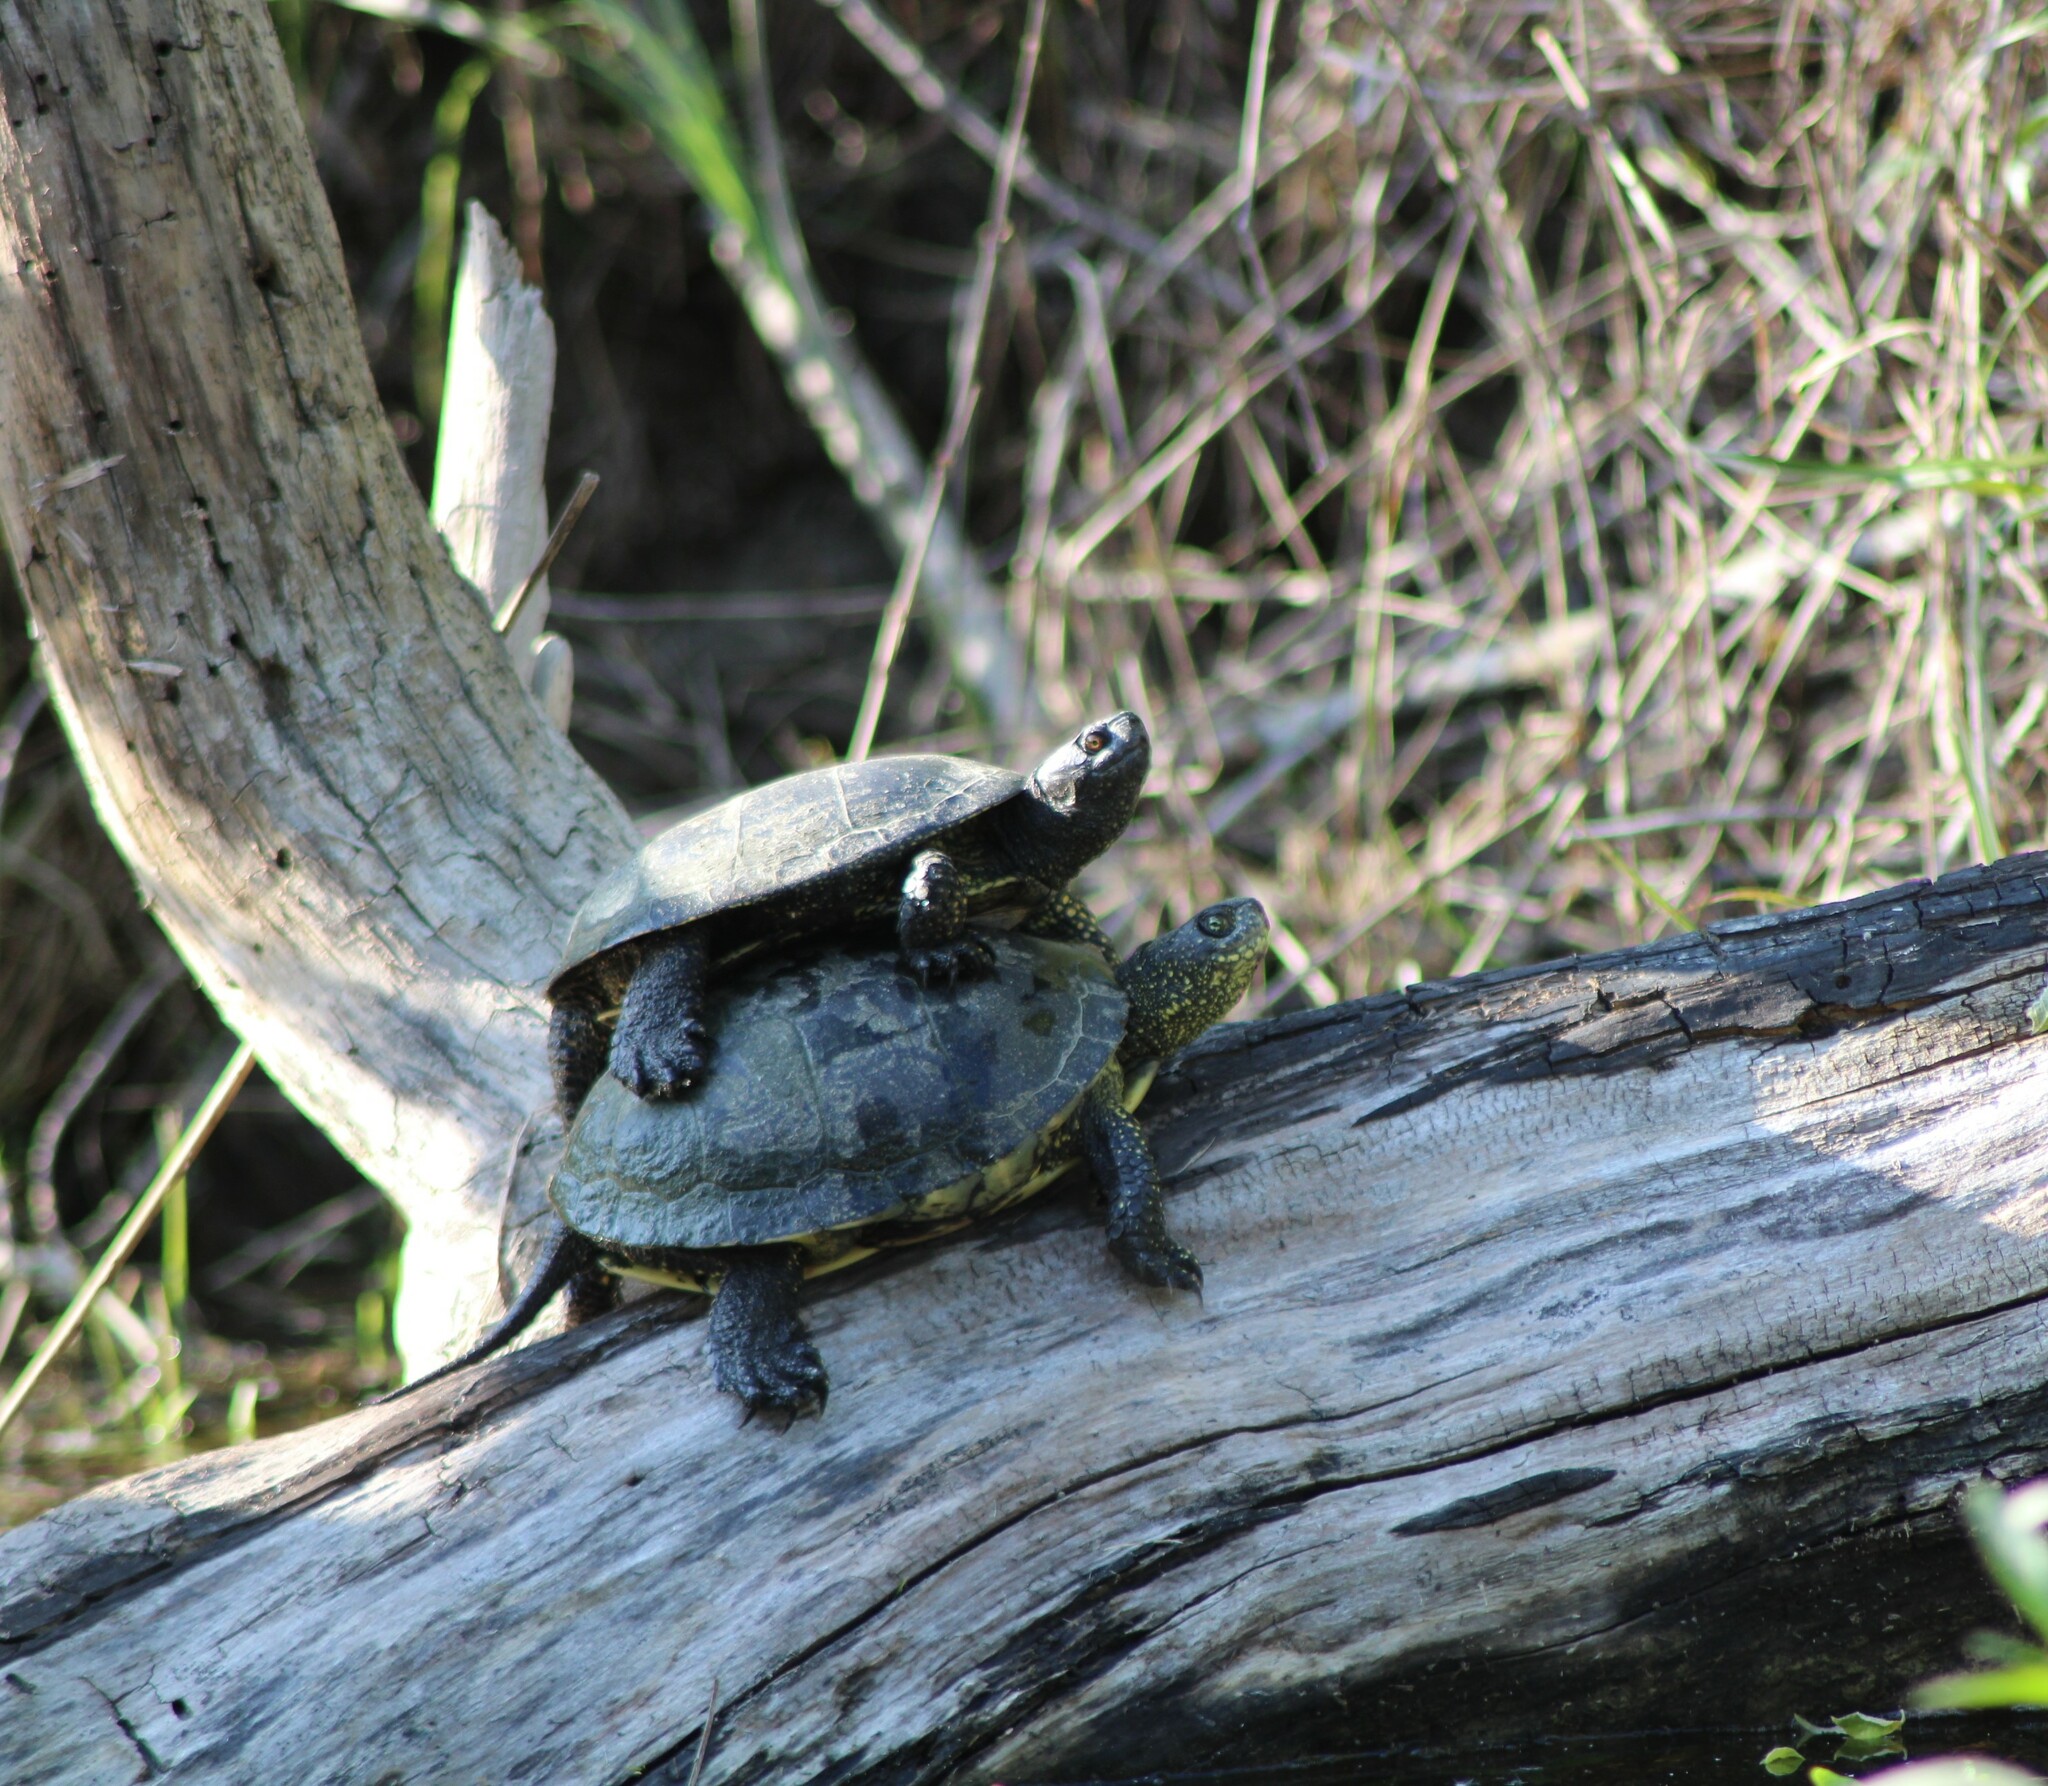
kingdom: Animalia
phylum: Chordata
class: Testudines
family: Emydidae
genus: Emys
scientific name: Emys orbicularis
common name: European pond turtle
